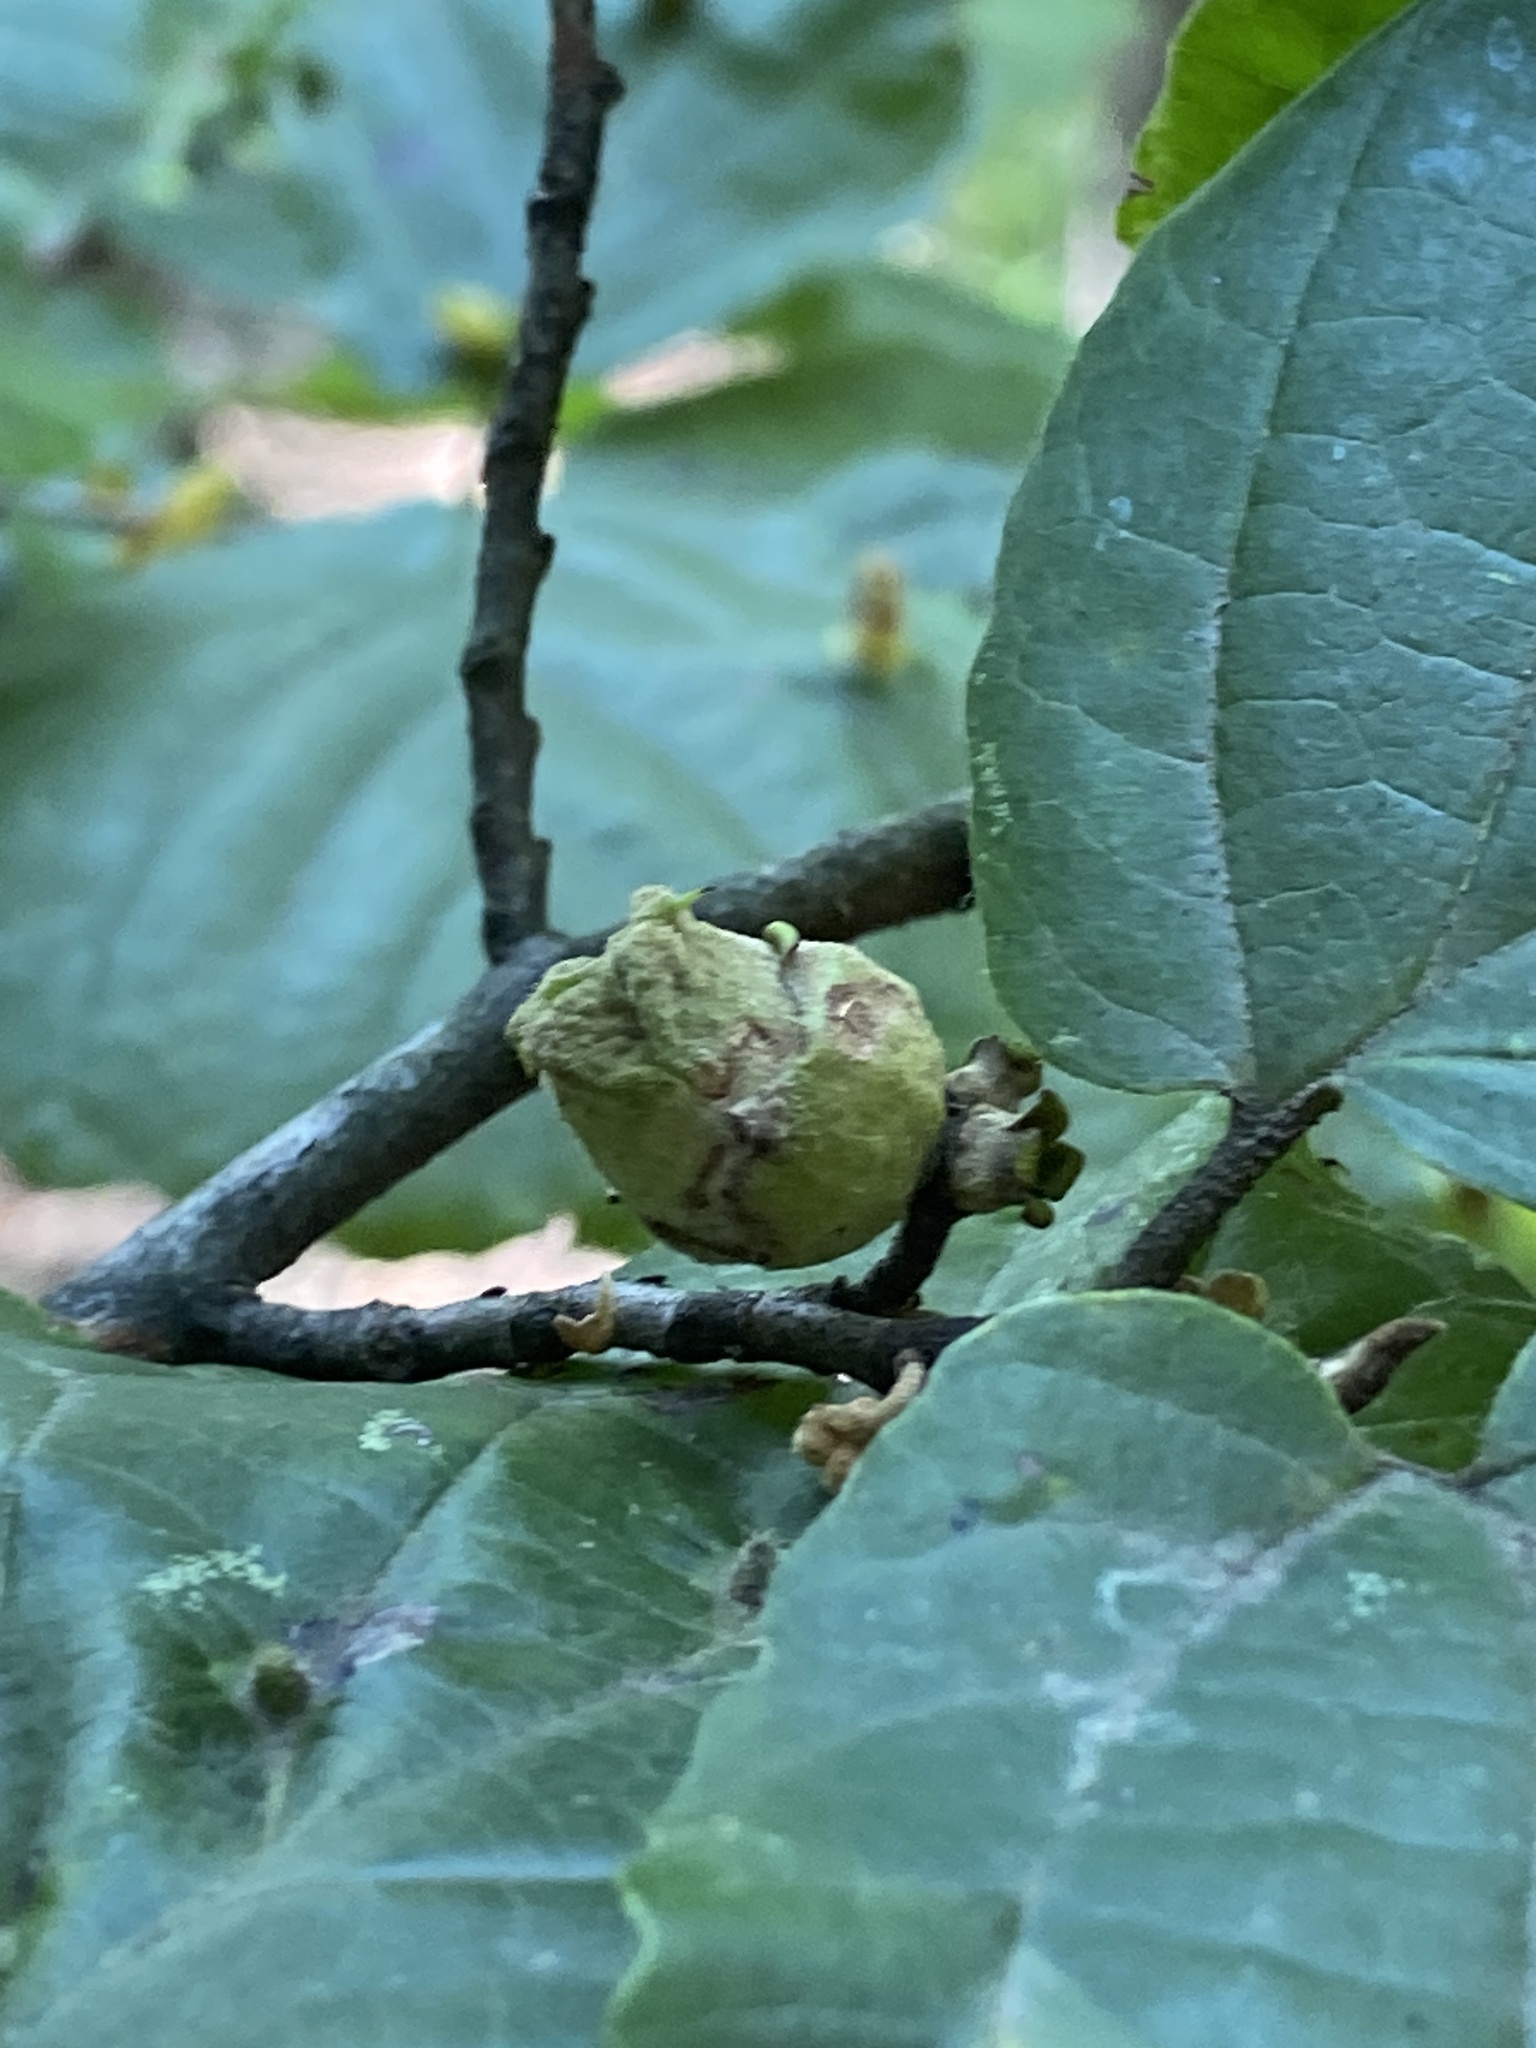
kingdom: Plantae
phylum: Tracheophyta
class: Magnoliopsida
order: Saxifragales
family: Hamamelidaceae
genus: Hamamelis
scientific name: Hamamelis virginiana
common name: Witch-hazel
